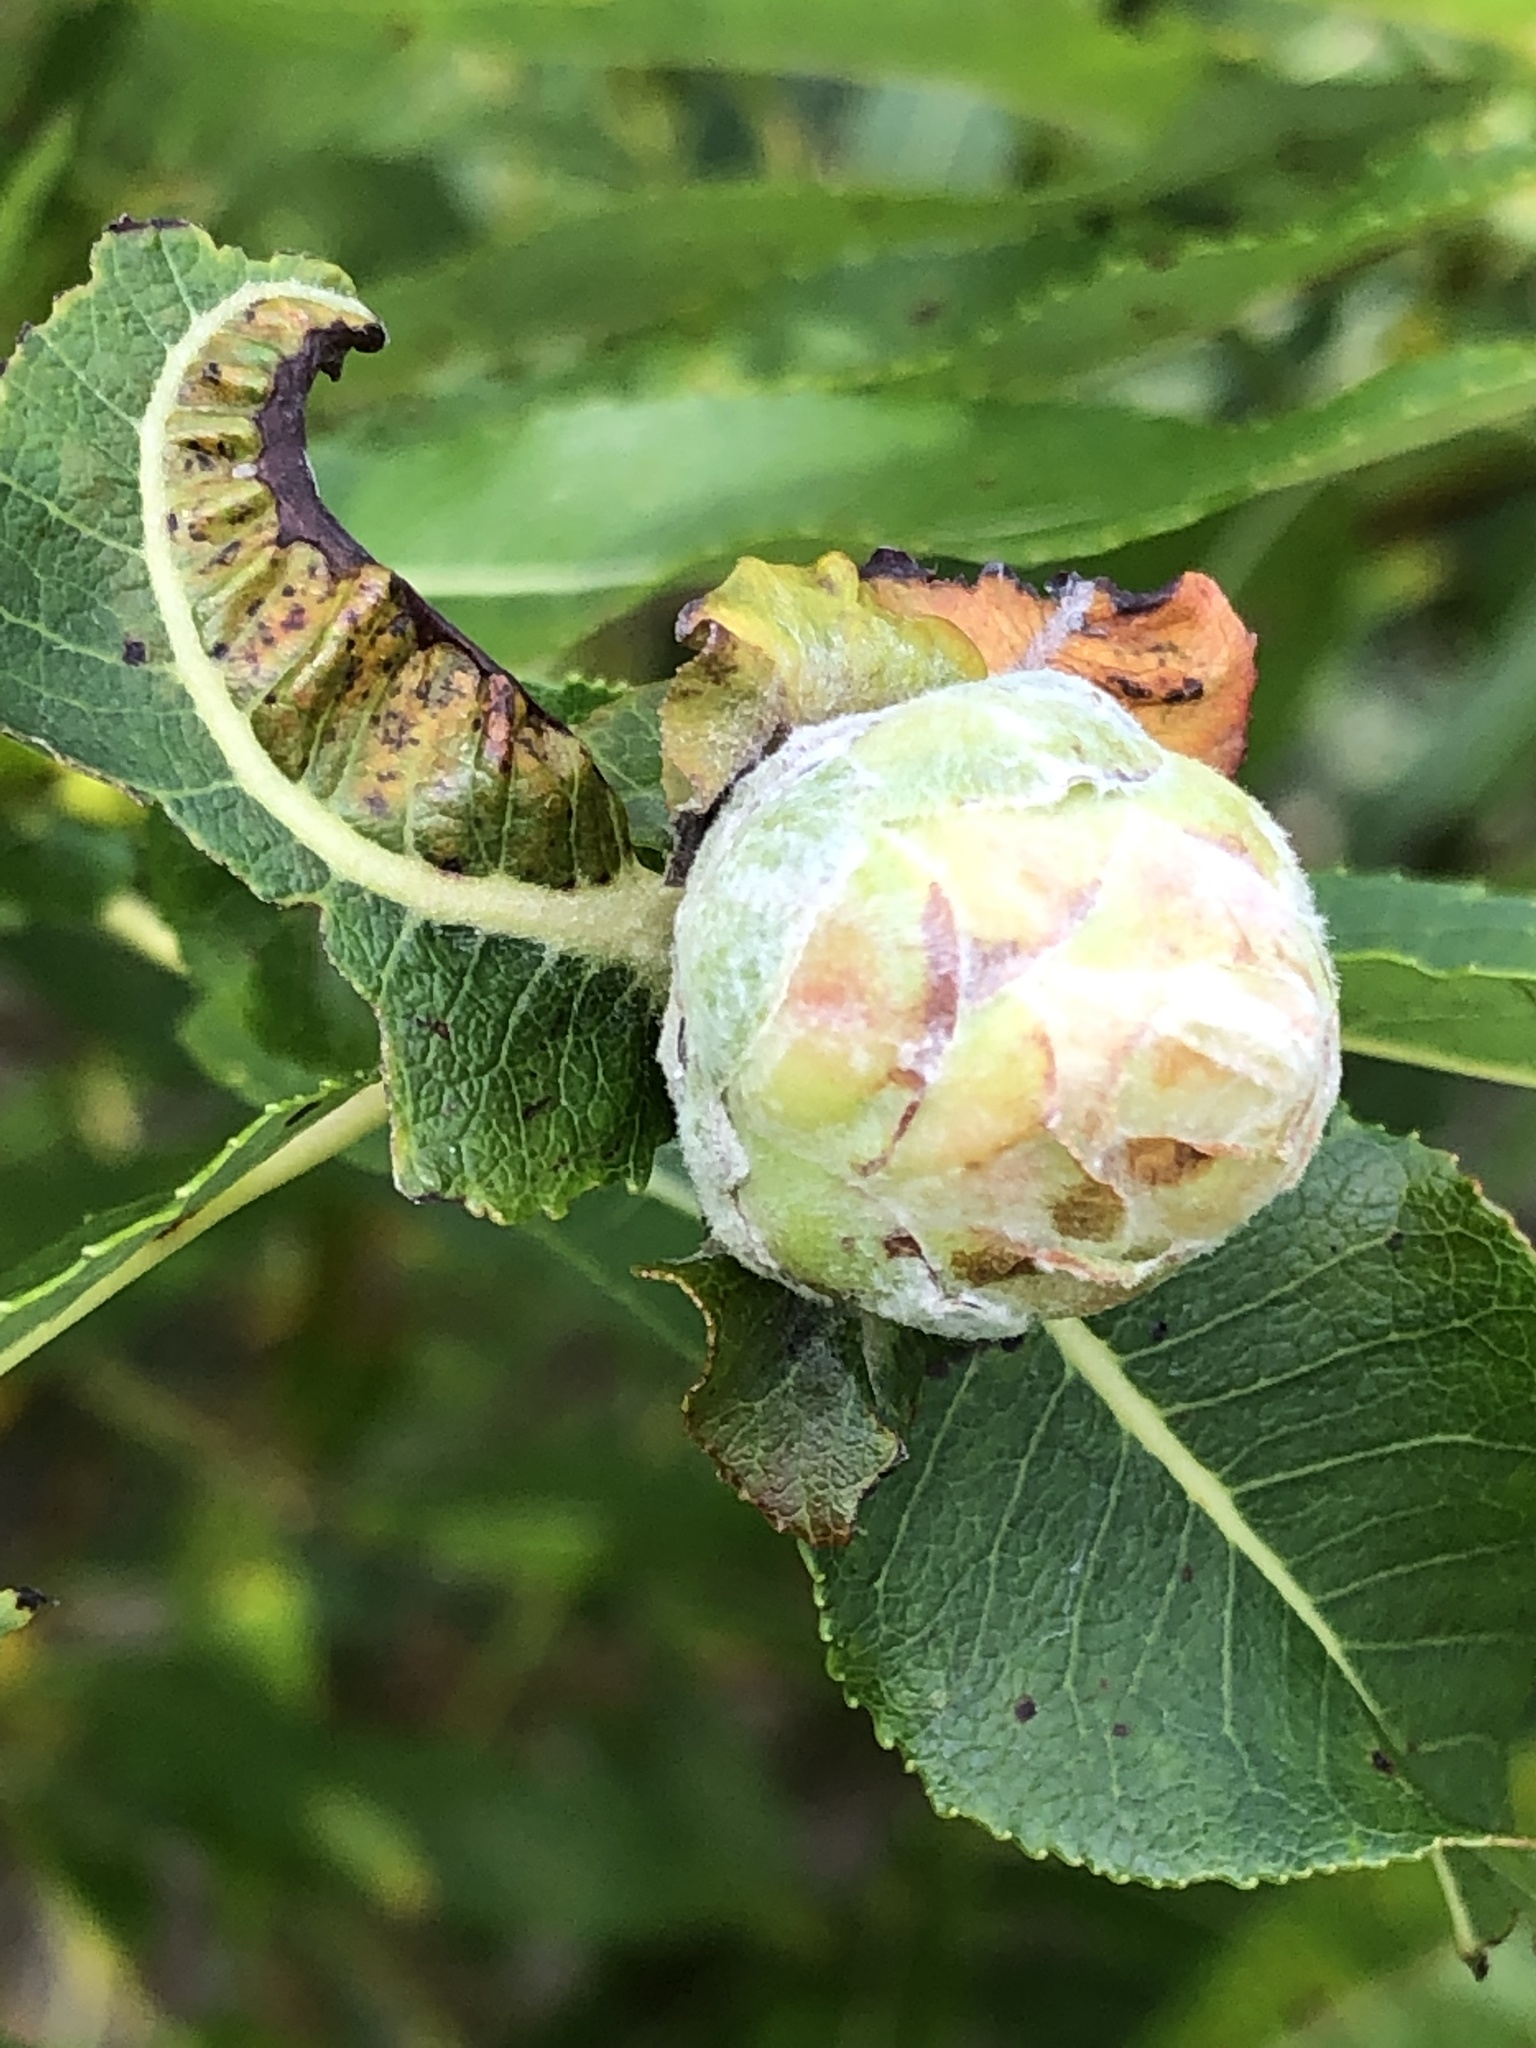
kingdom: Animalia
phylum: Arthropoda
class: Insecta
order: Diptera
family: Cecidomyiidae
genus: Rabdophaga
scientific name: Rabdophaga strobiloides
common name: Willow pinecone gall midge
